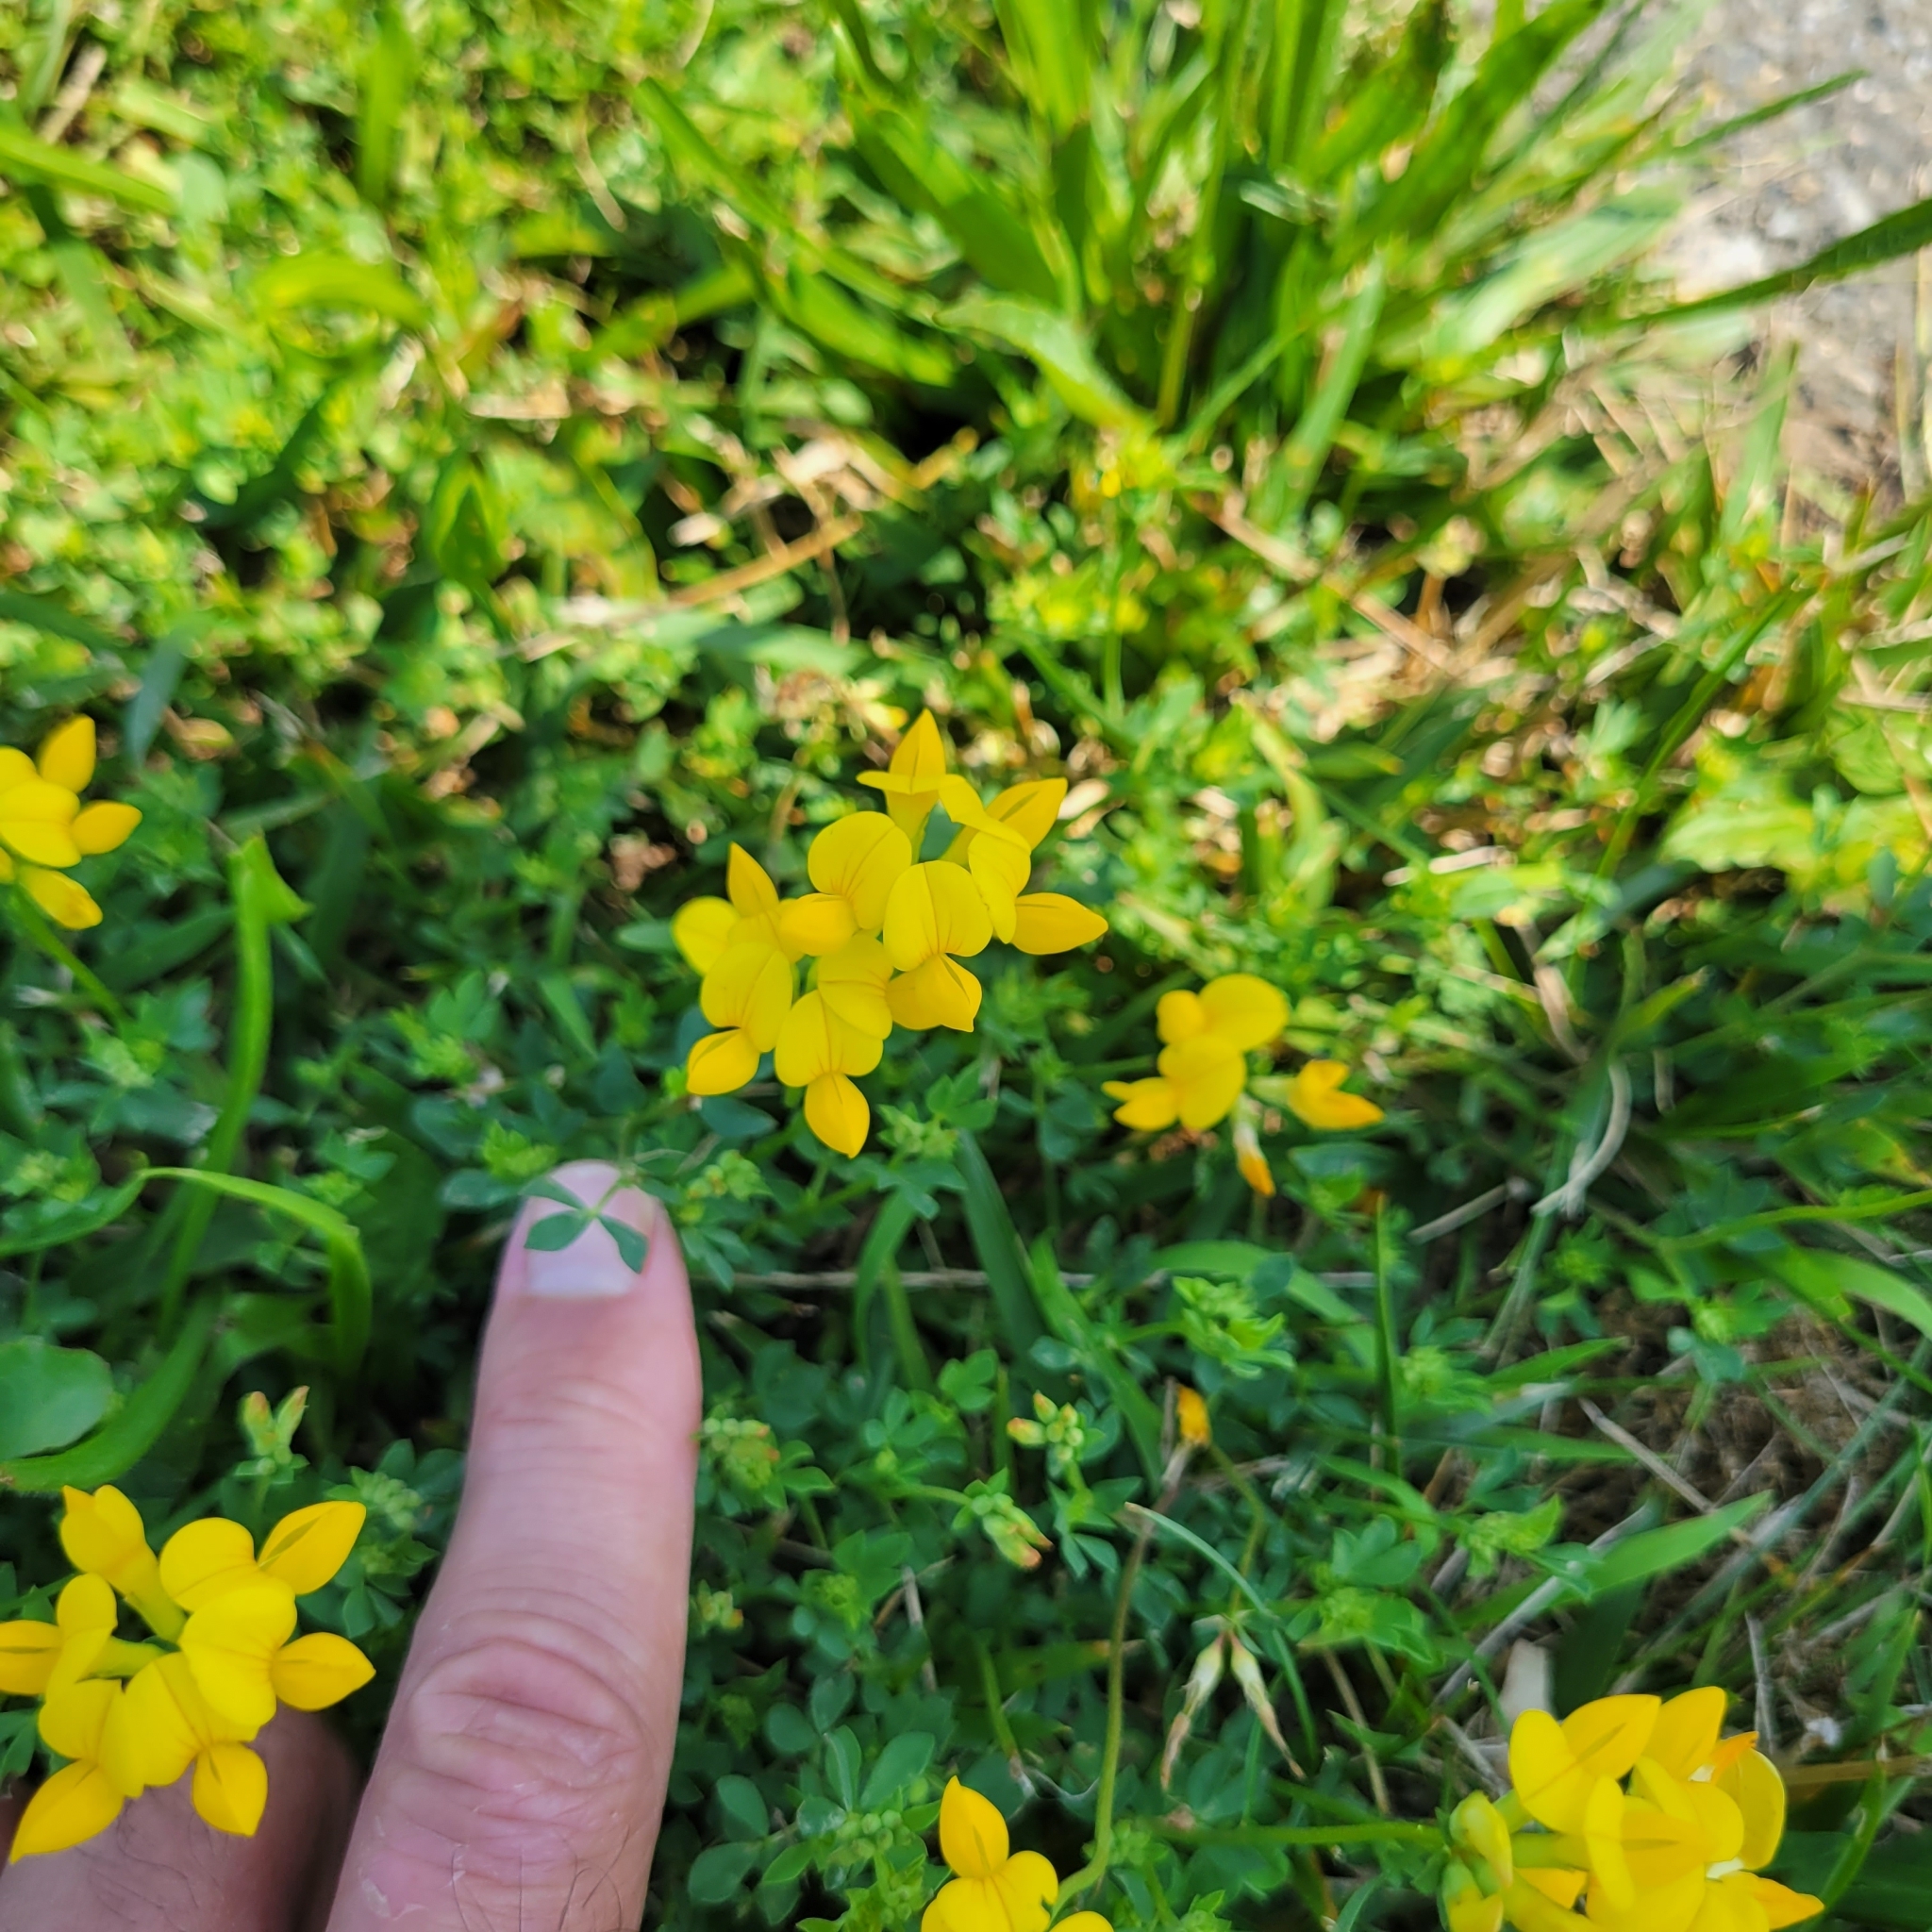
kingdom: Plantae
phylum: Tracheophyta
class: Magnoliopsida
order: Fabales
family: Fabaceae
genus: Lotus
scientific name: Lotus corniculatus
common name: Common bird's-foot-trefoil
